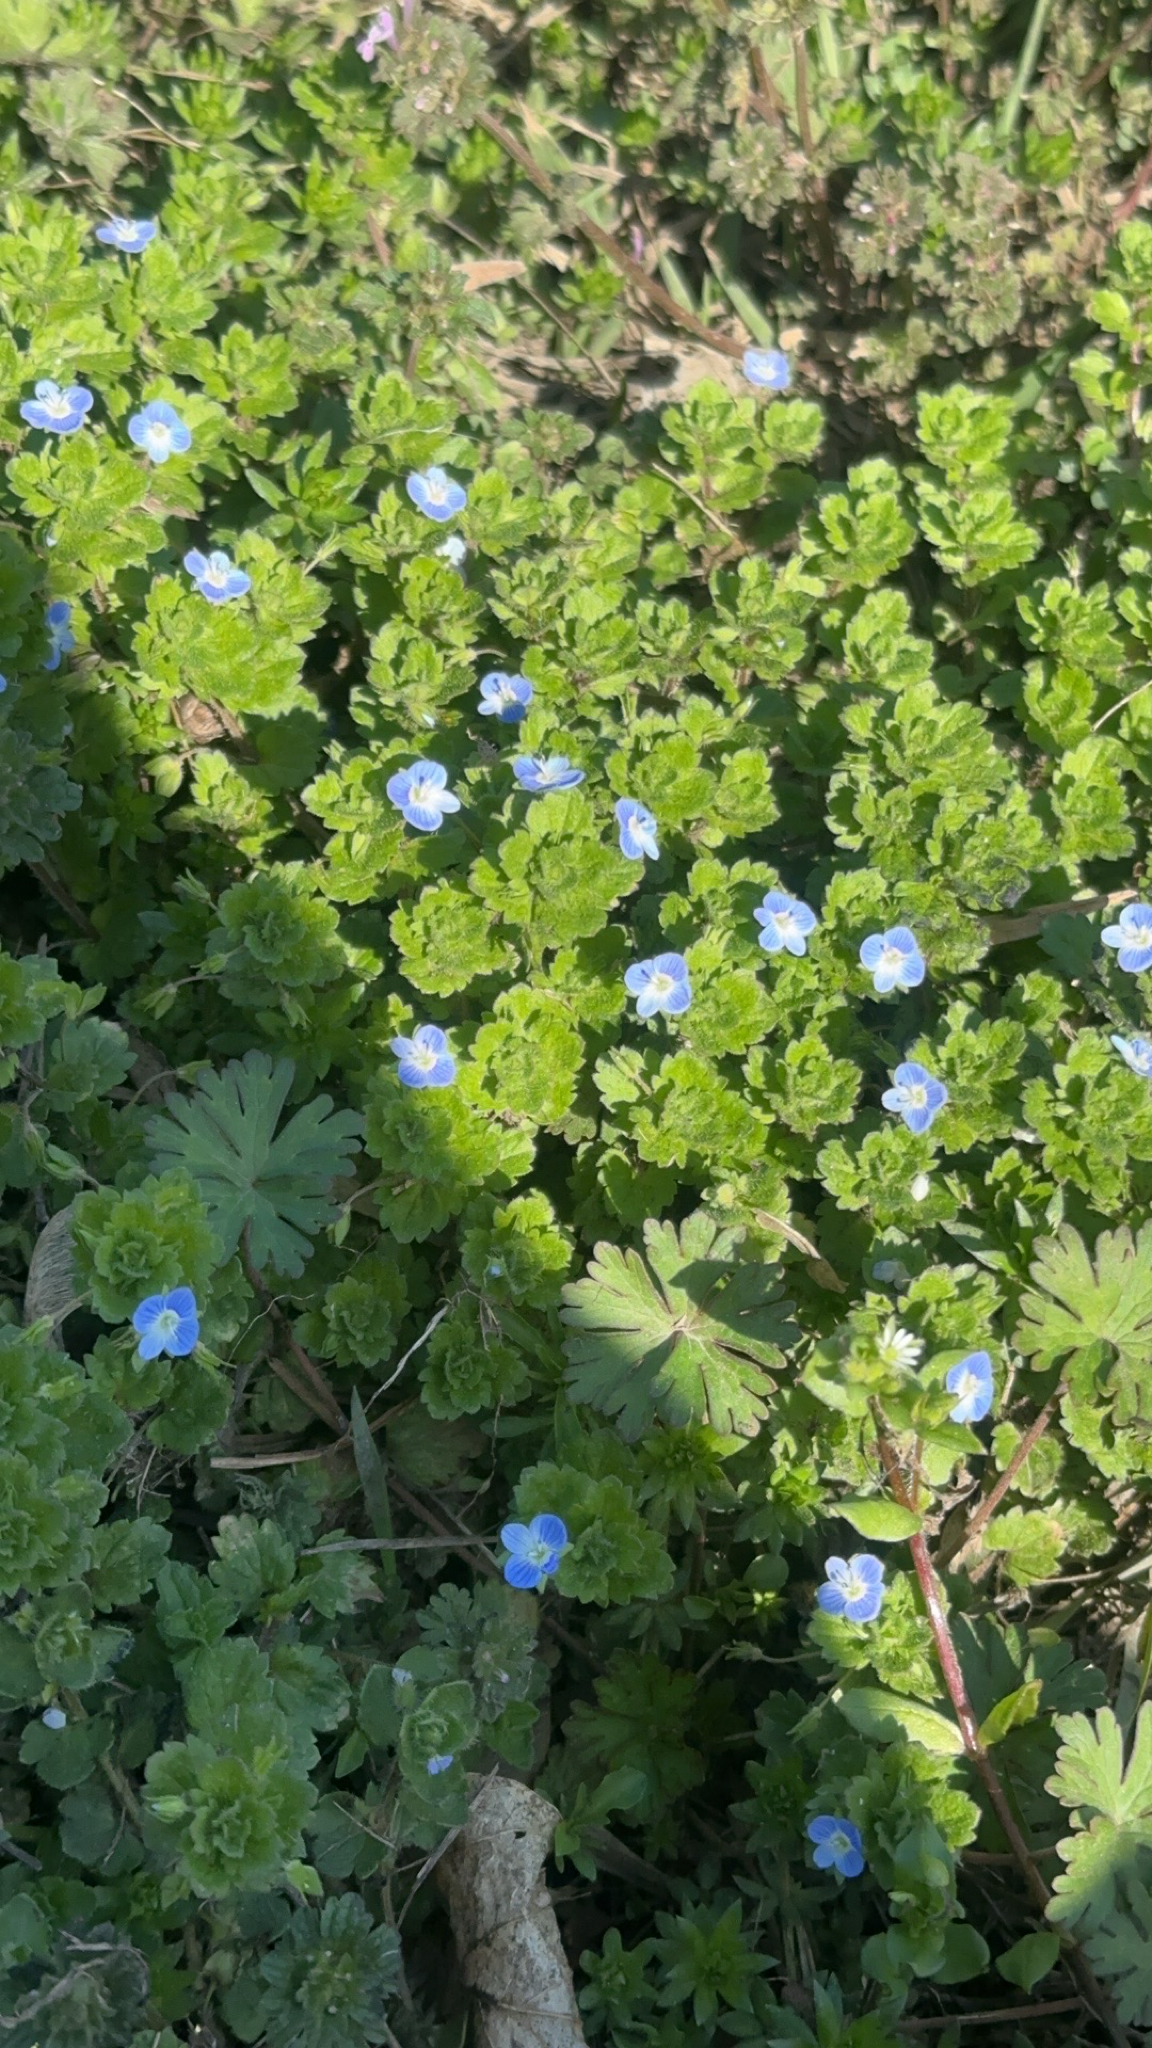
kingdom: Plantae
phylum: Tracheophyta
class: Magnoliopsida
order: Lamiales
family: Plantaginaceae
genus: Veronica
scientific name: Veronica persica
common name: Common field-speedwell
